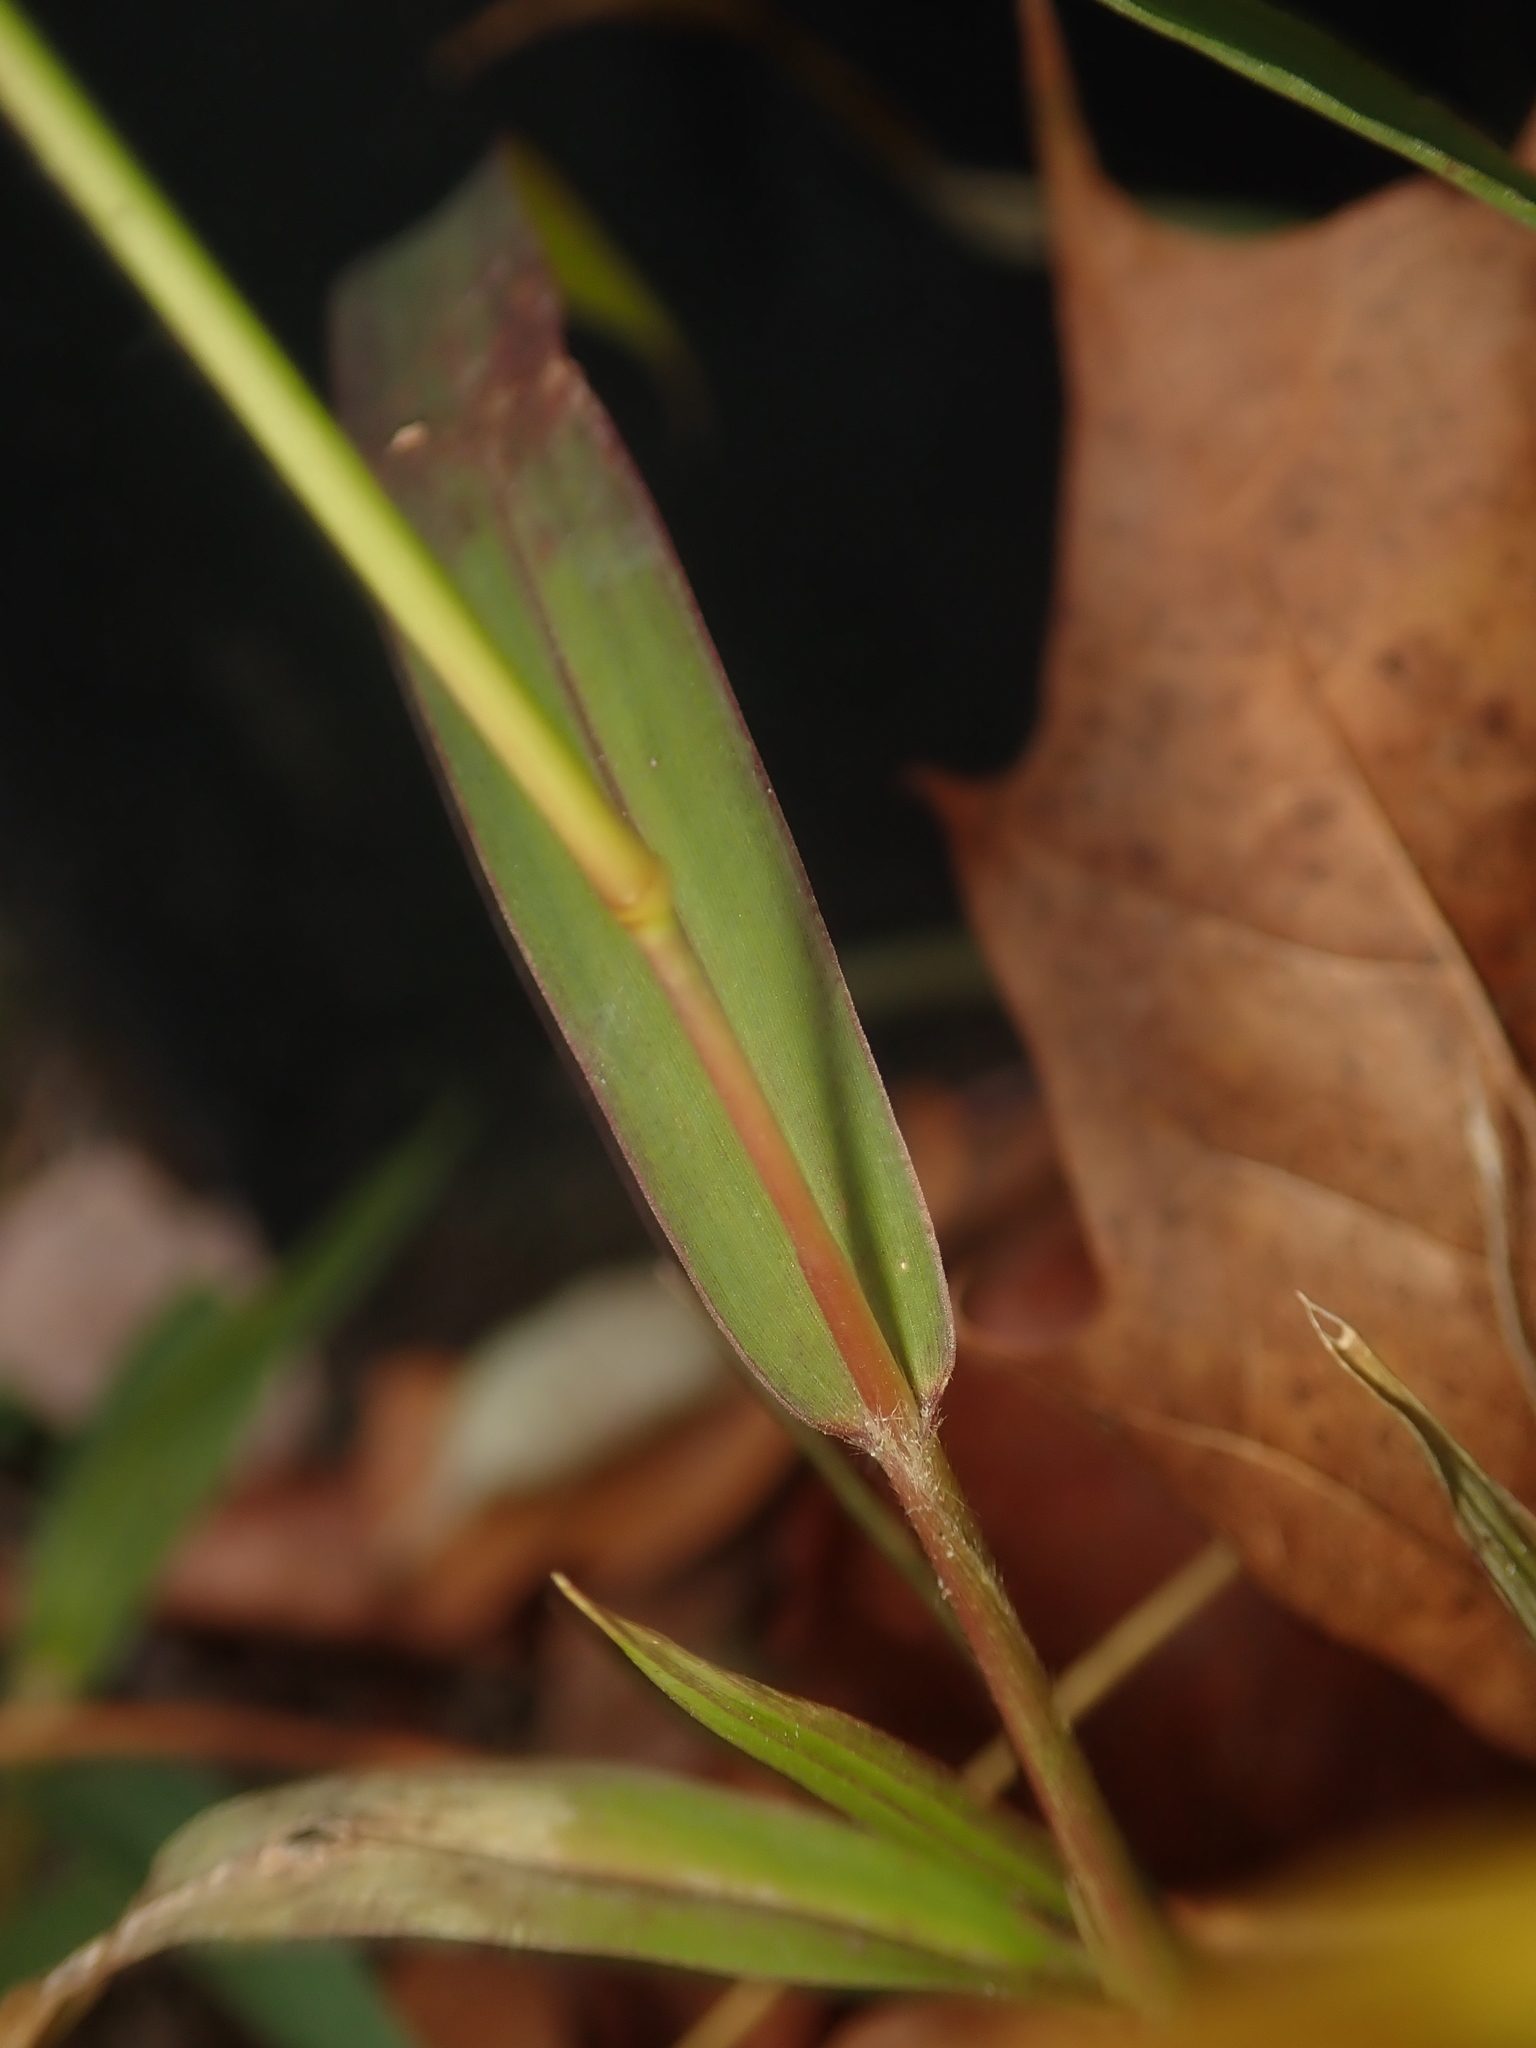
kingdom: Plantae
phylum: Tracheophyta
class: Liliopsida
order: Poales
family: Poaceae
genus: Setaria
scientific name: Setaria viridis
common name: Green bristlegrass
